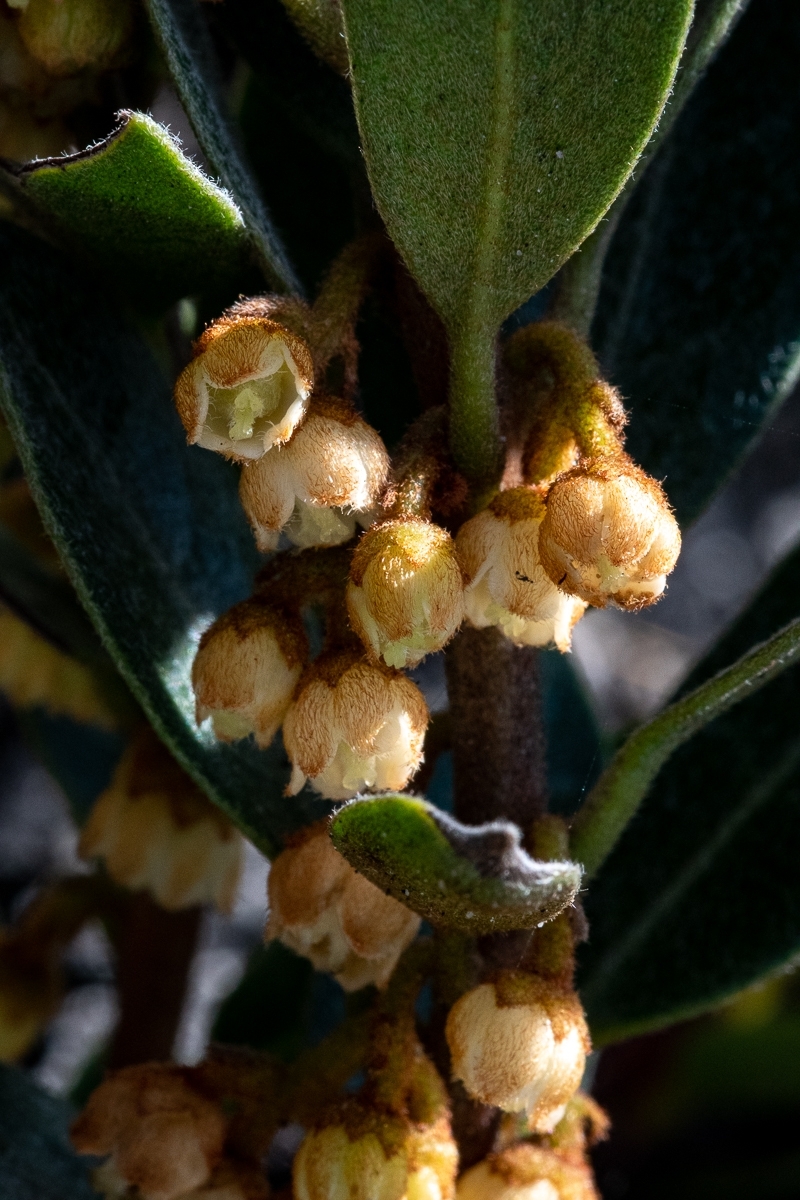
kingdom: Plantae
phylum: Tracheophyta
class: Magnoliopsida
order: Ericales
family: Ebenaceae
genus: Euclea
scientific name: Euclea polyandra
